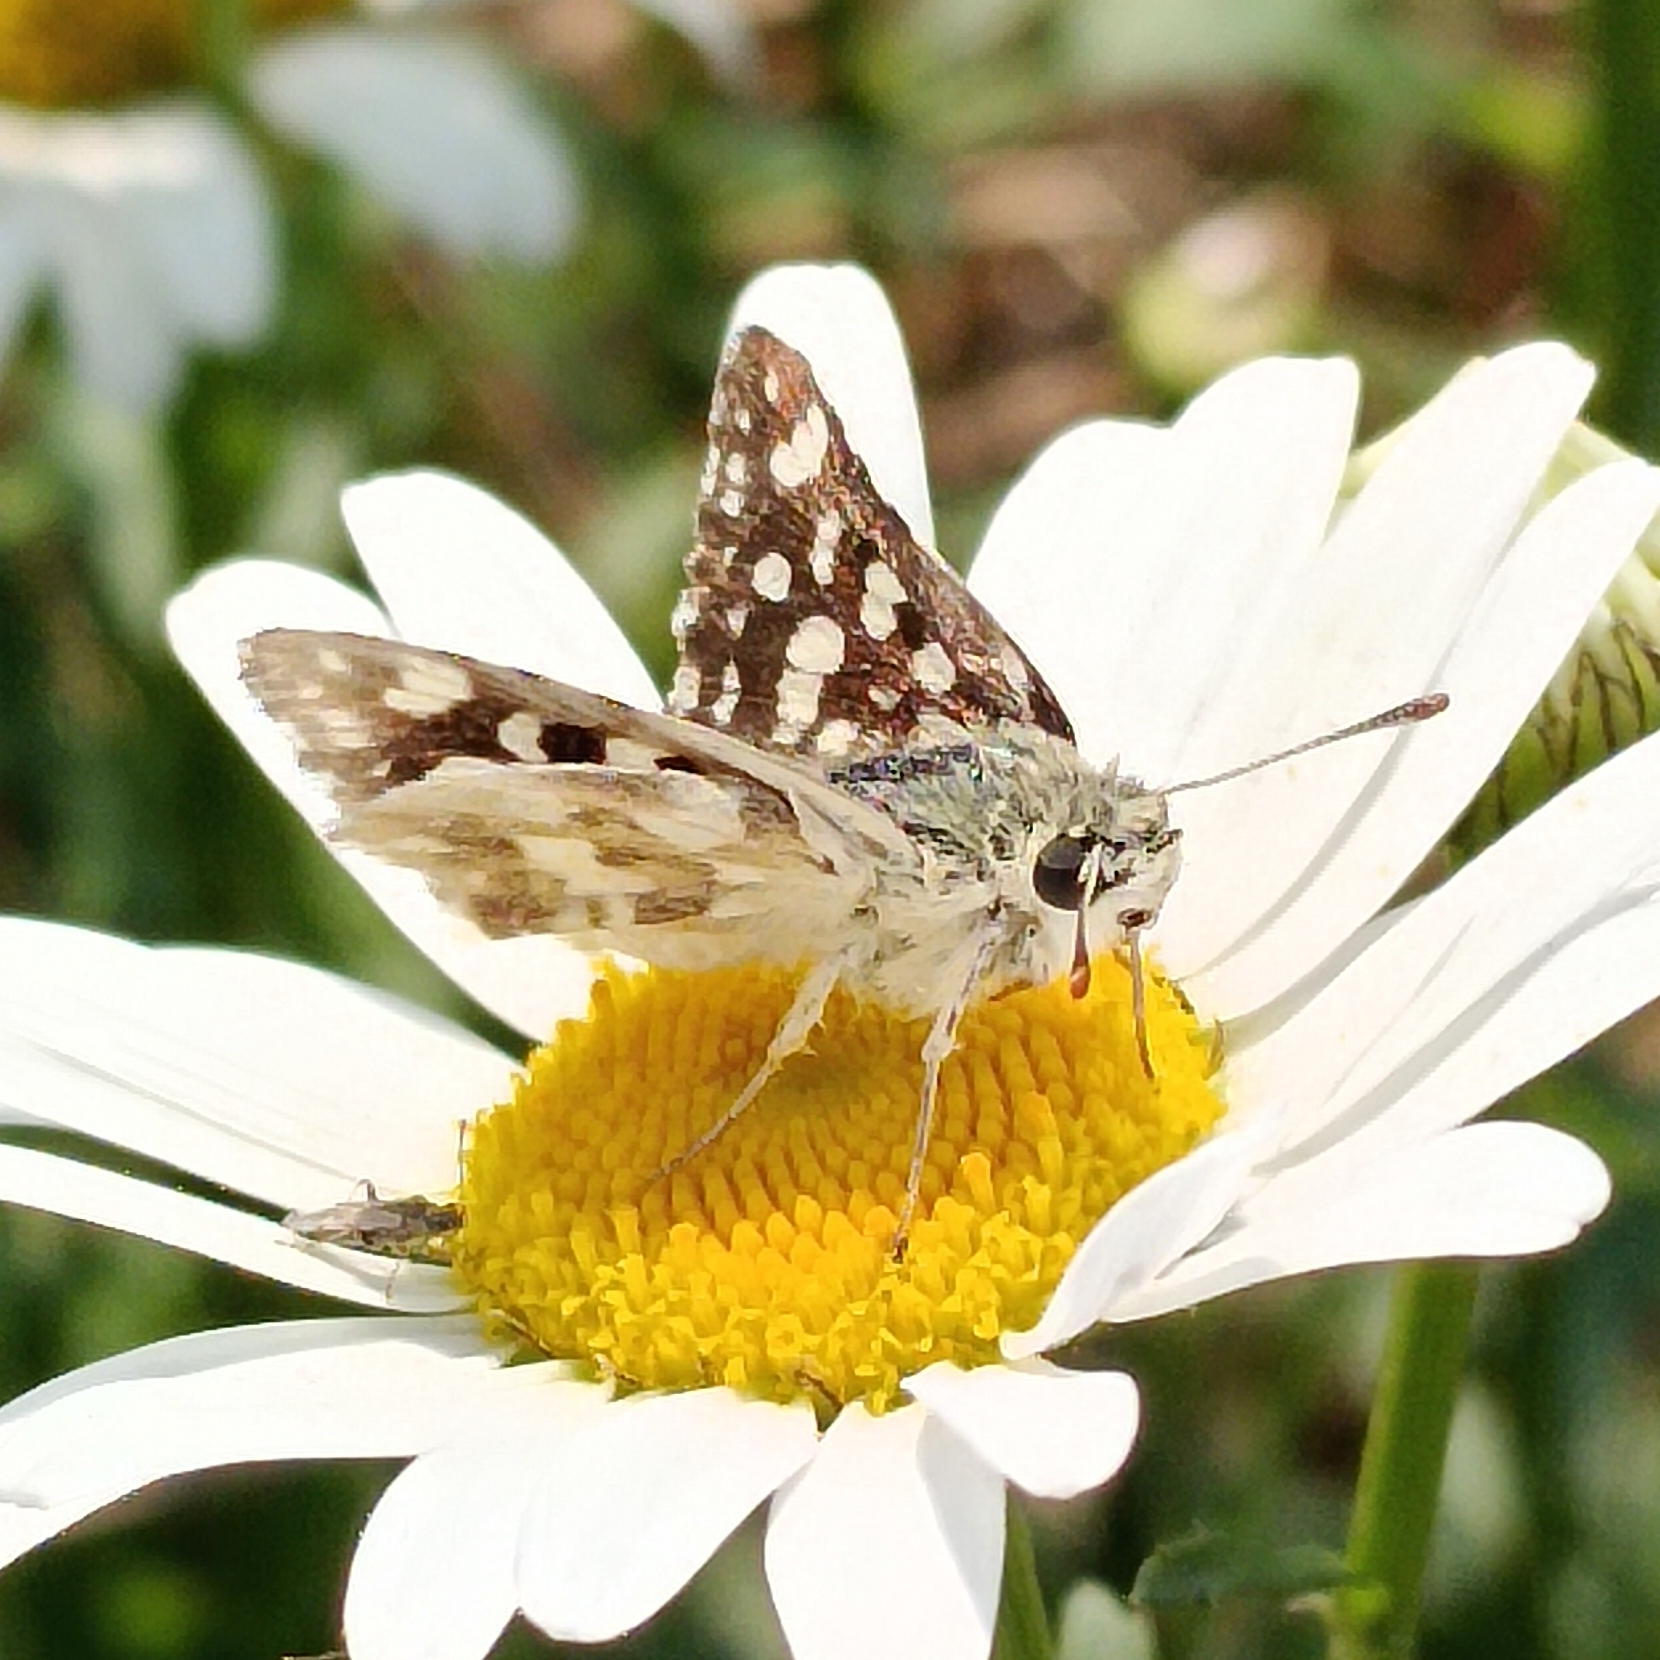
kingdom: Animalia
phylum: Arthropoda
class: Insecta
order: Lepidoptera
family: Hesperiidae
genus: Spialia
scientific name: Spialia spio
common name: Mountain sandman
